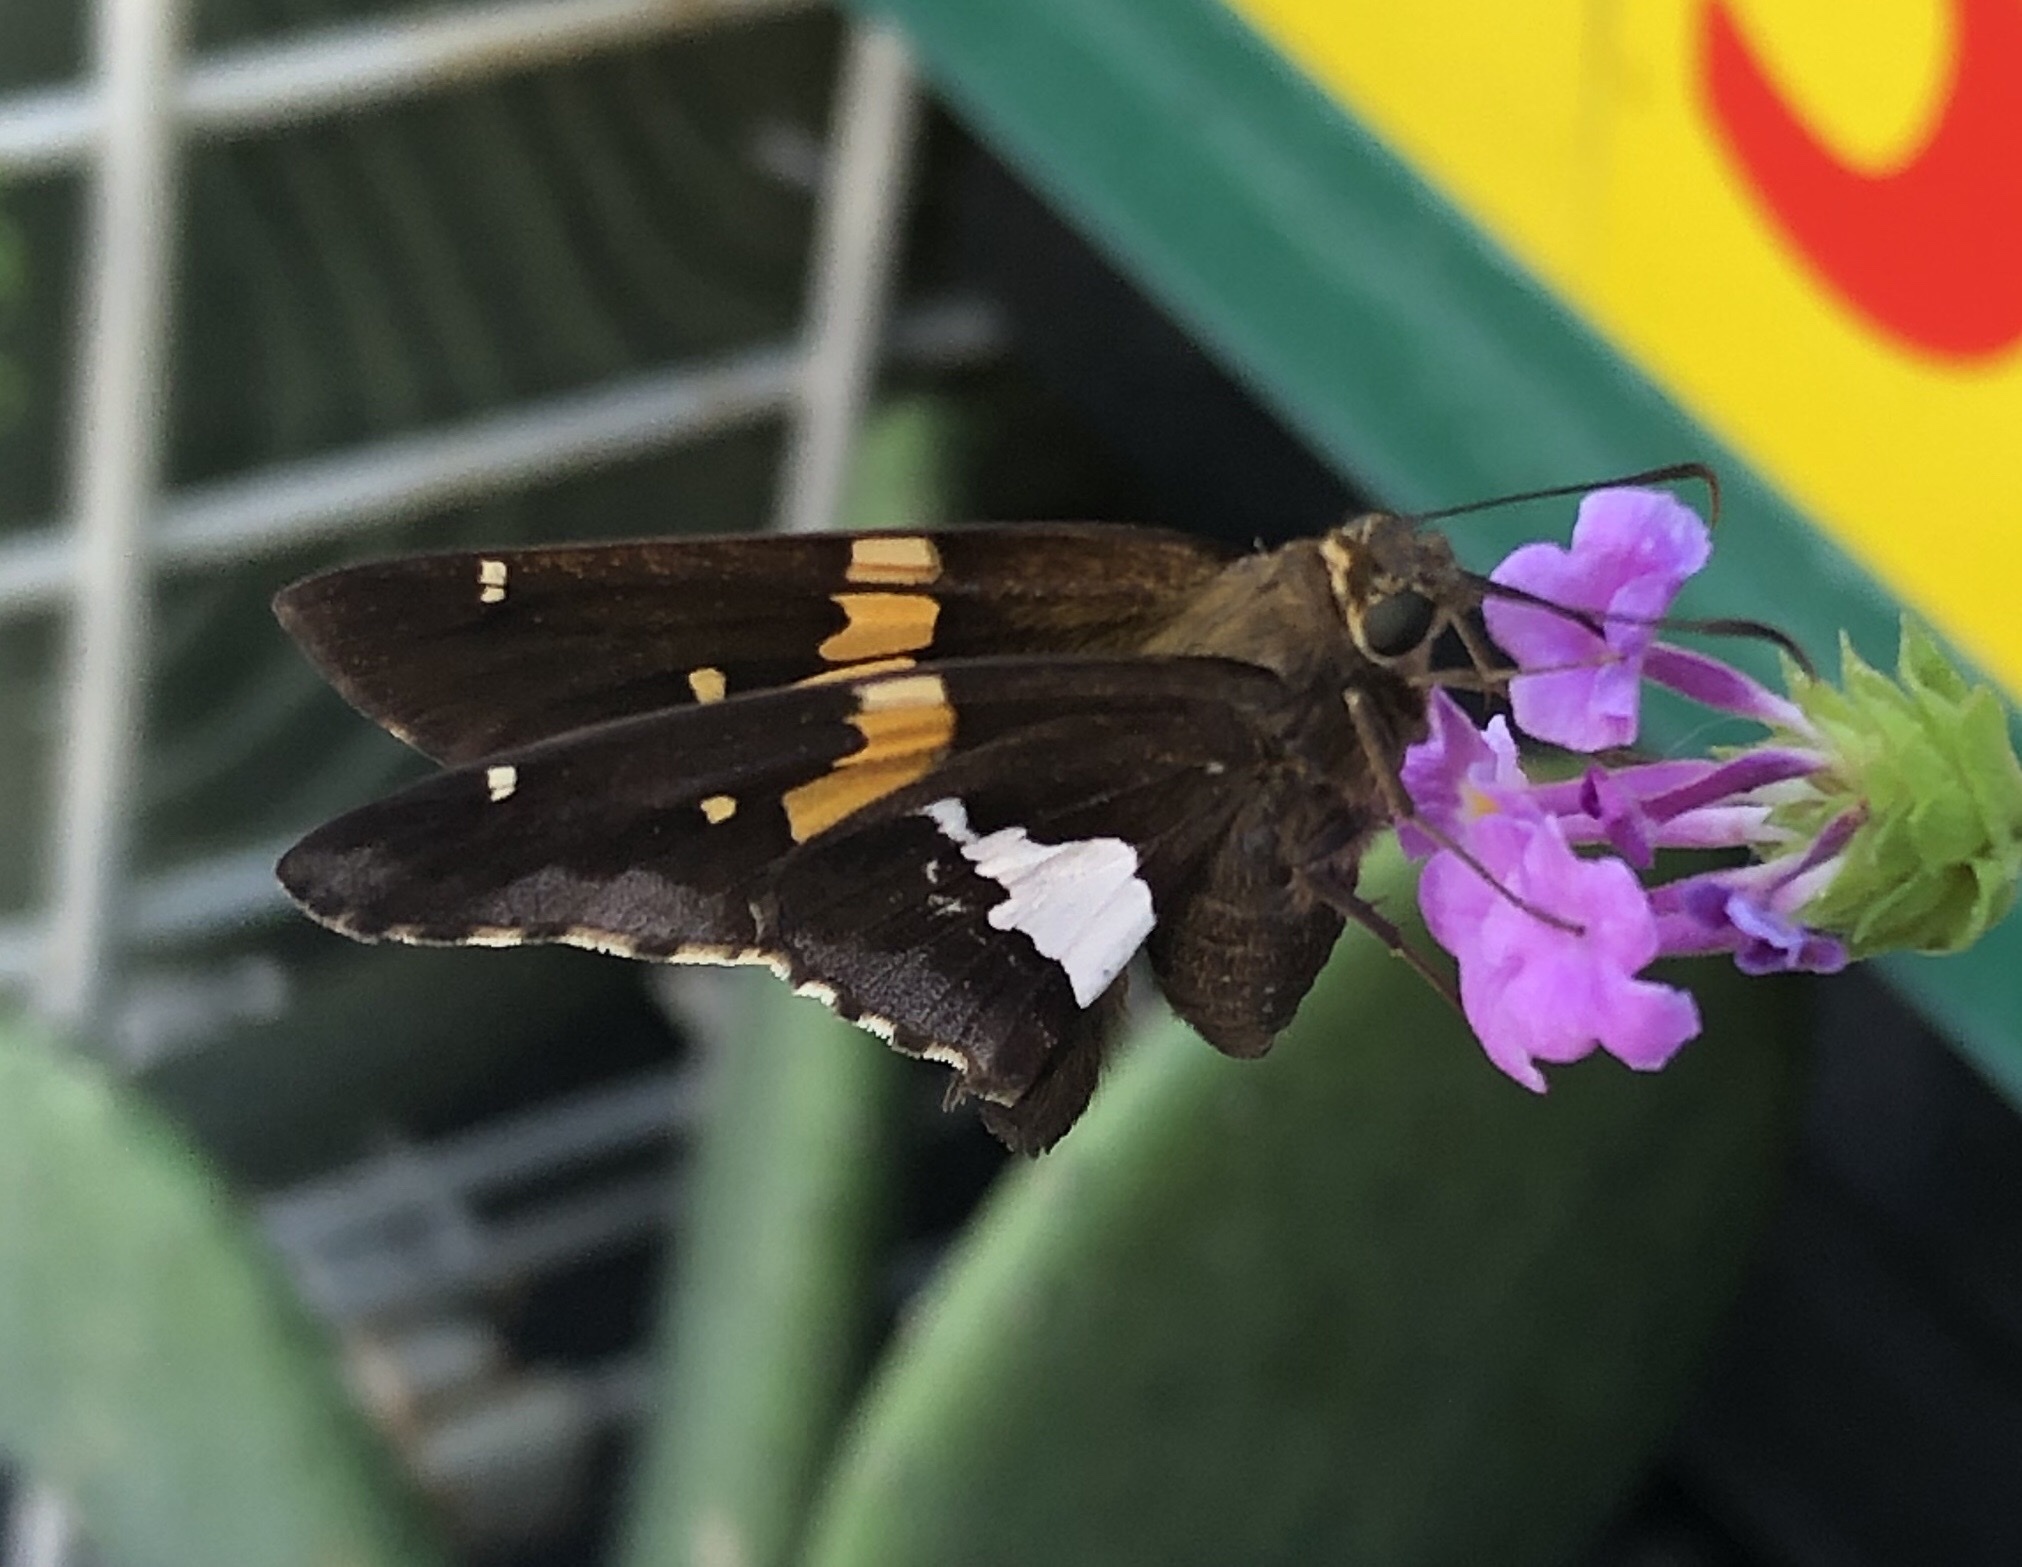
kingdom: Animalia
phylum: Arthropoda
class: Insecta
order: Lepidoptera
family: Hesperiidae
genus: Epargyreus
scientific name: Epargyreus clarus
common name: Silver-spotted skipper
